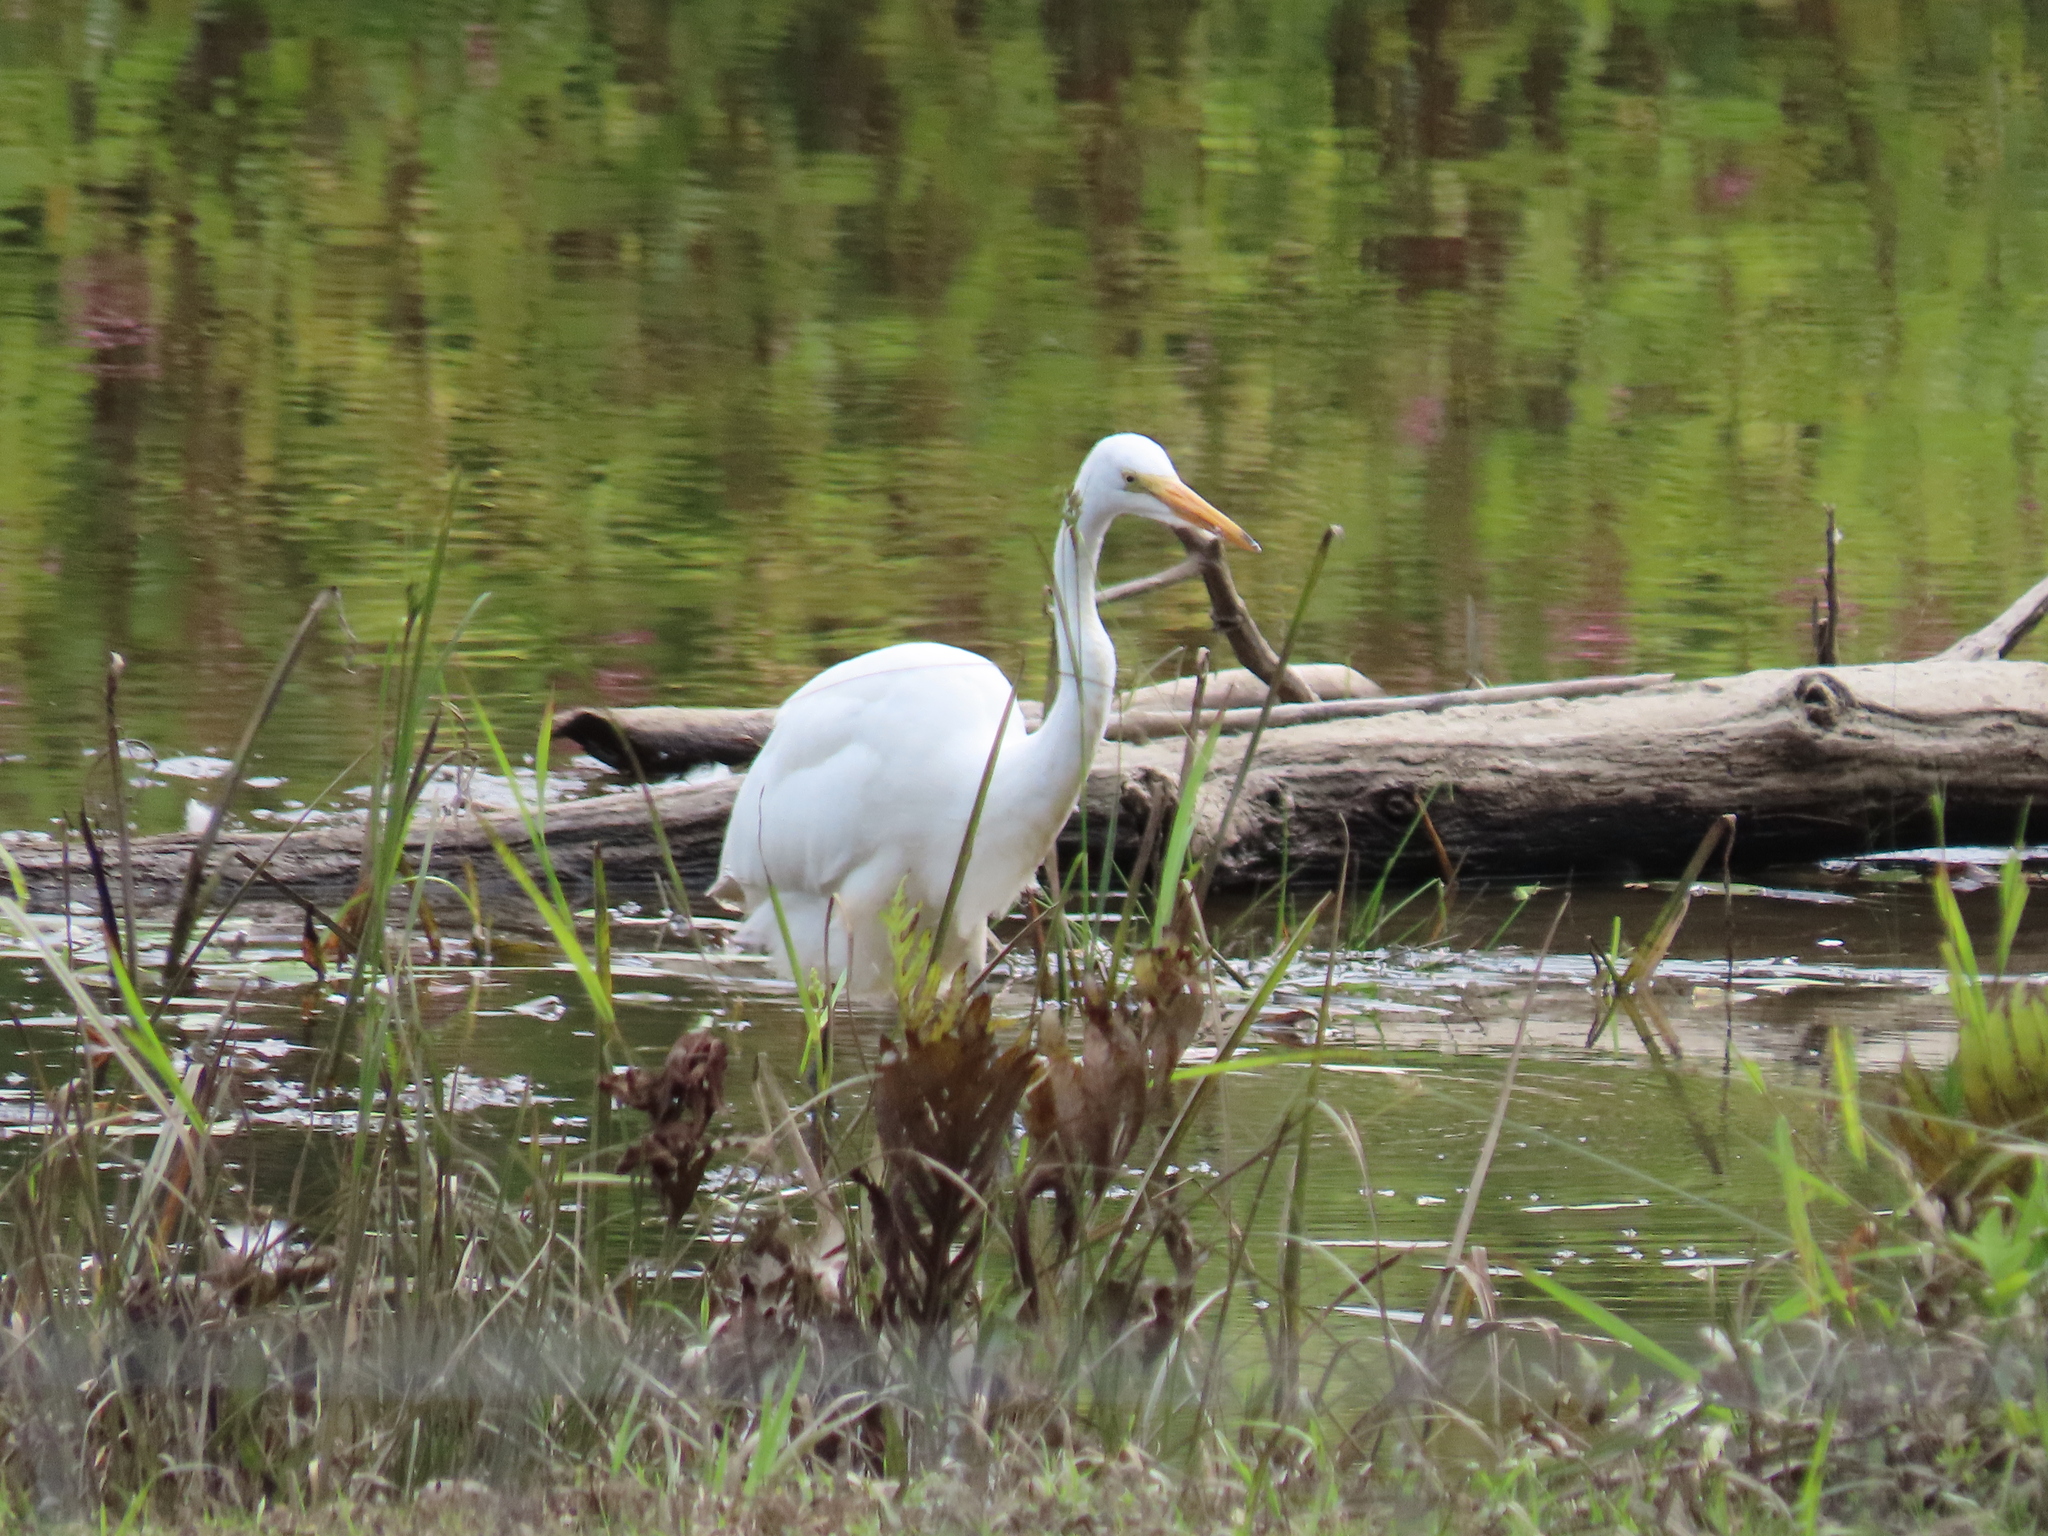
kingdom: Animalia
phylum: Chordata
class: Aves
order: Pelecaniformes
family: Ardeidae
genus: Ardea
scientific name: Ardea alba
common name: Great egret
